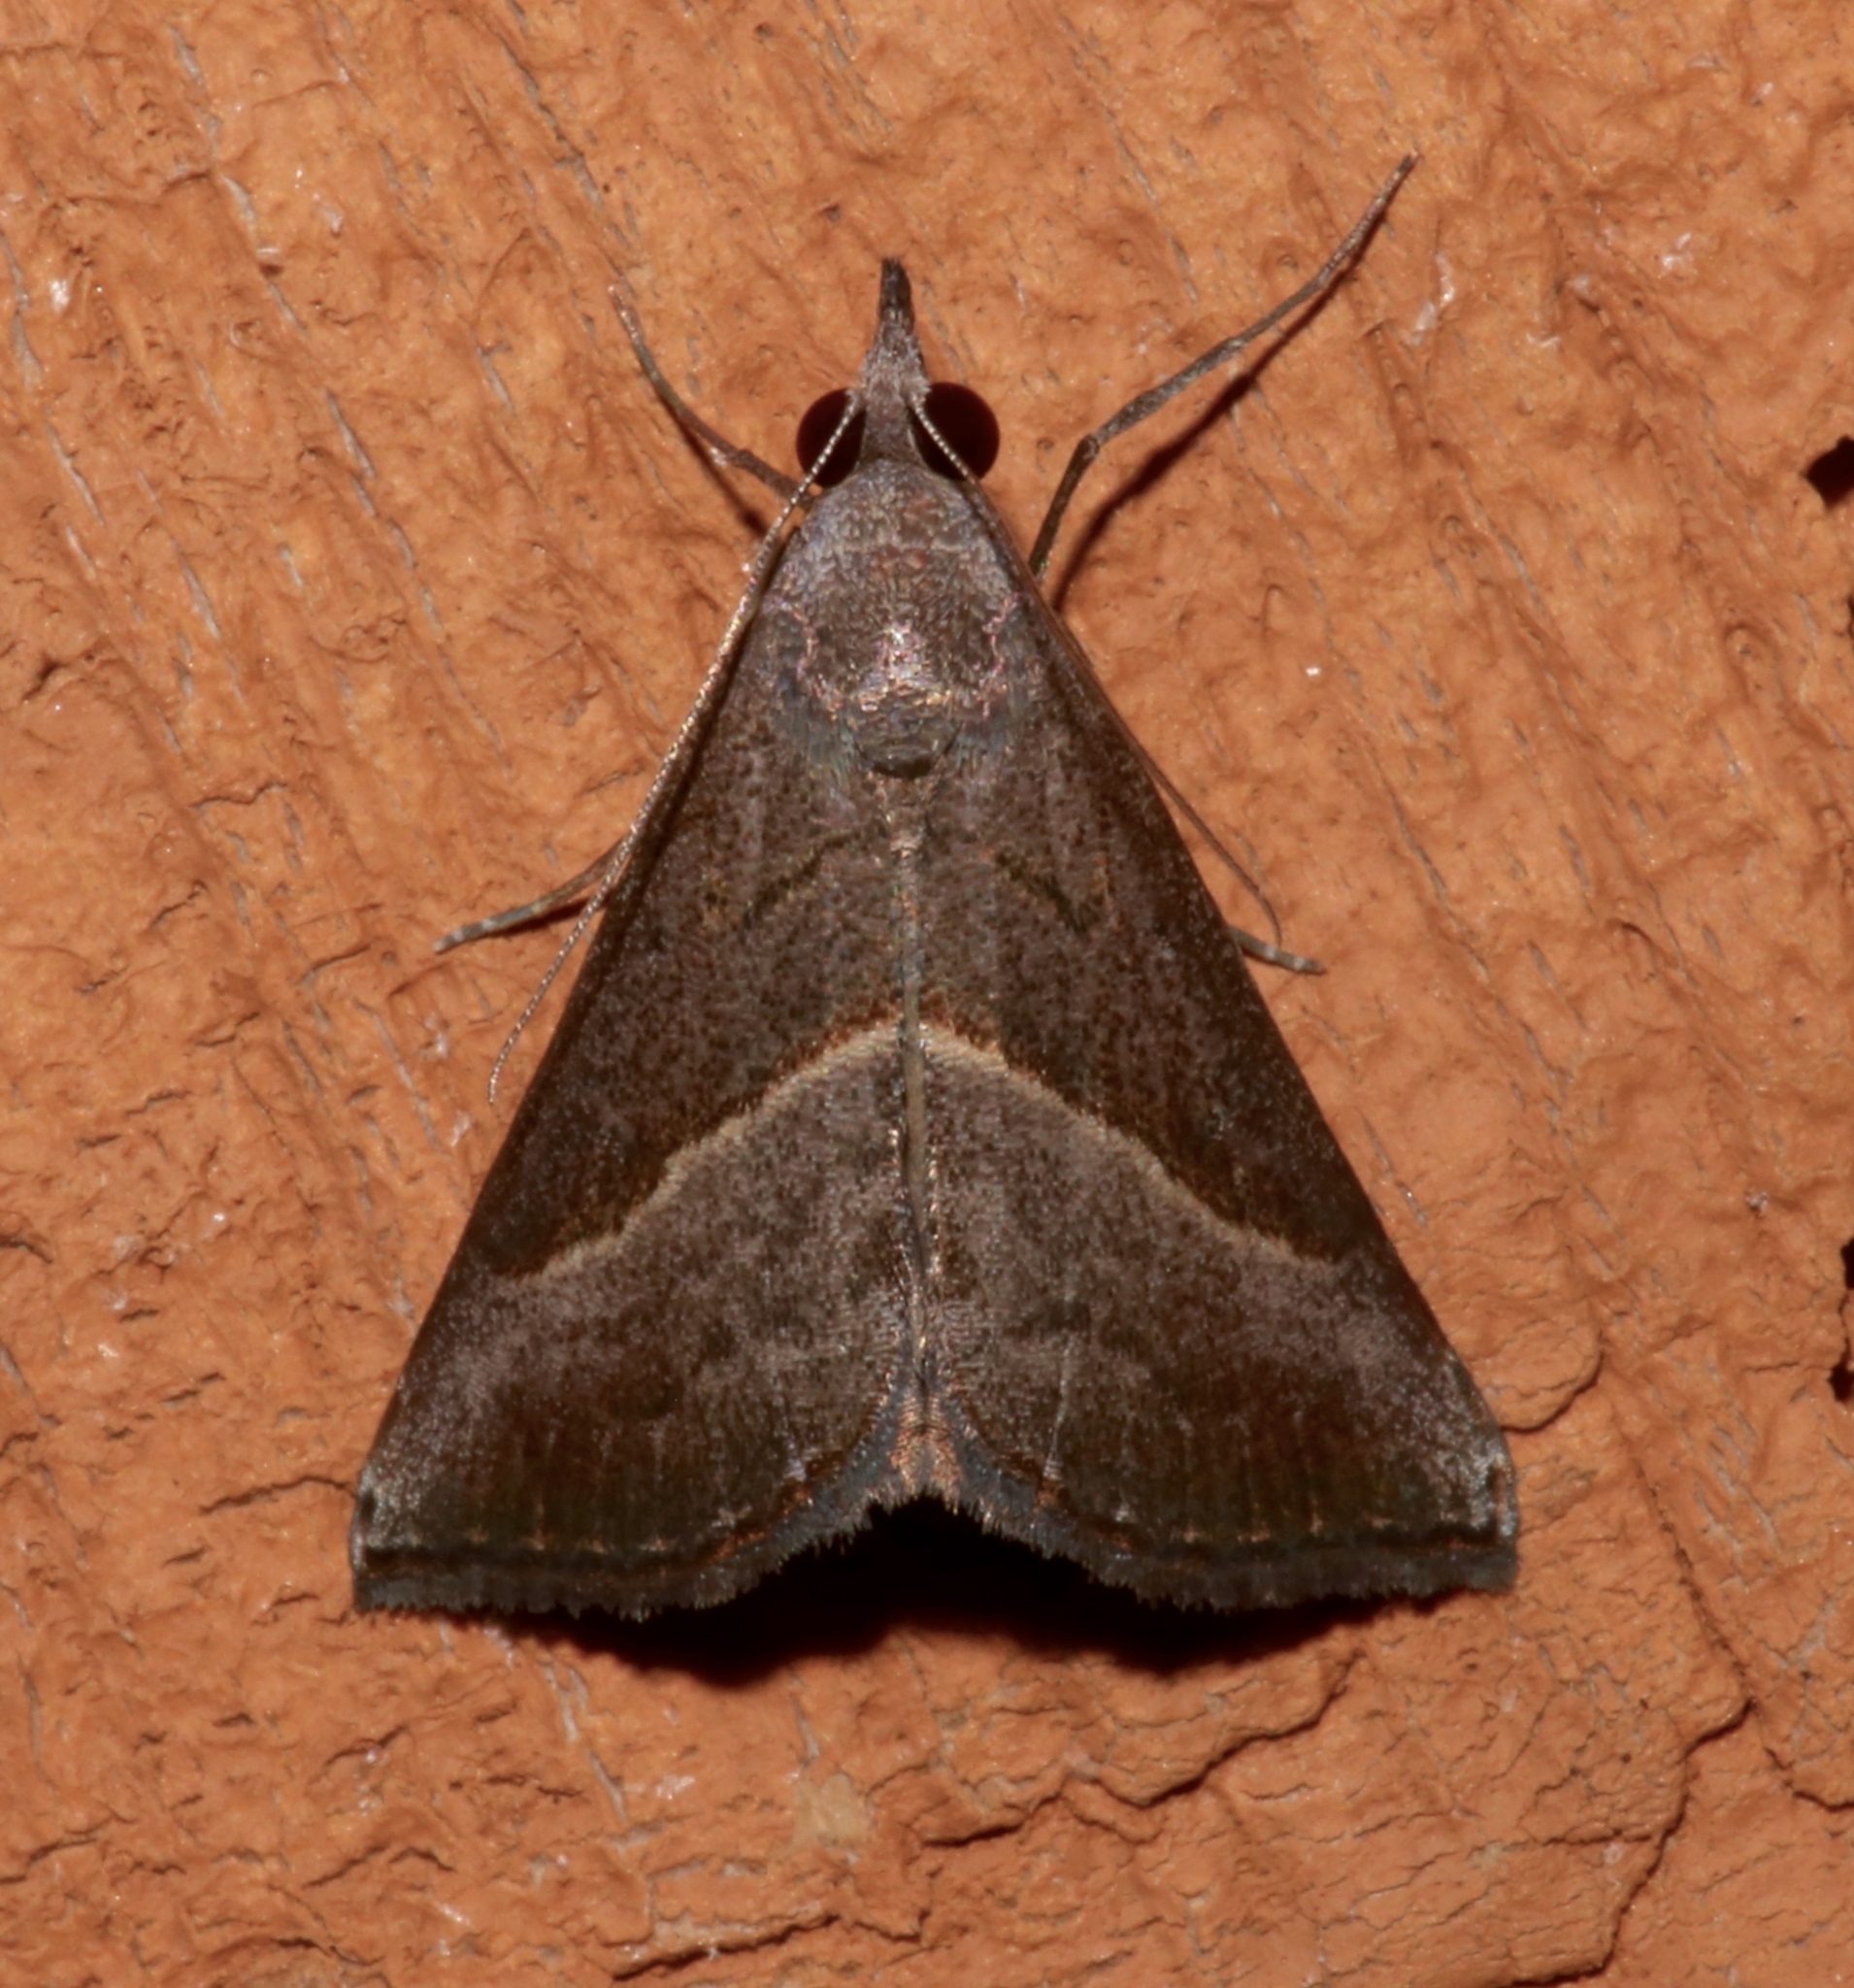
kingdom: Animalia
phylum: Arthropoda
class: Insecta
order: Lepidoptera
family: Erebidae
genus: Hypena
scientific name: Hypena degesalis
